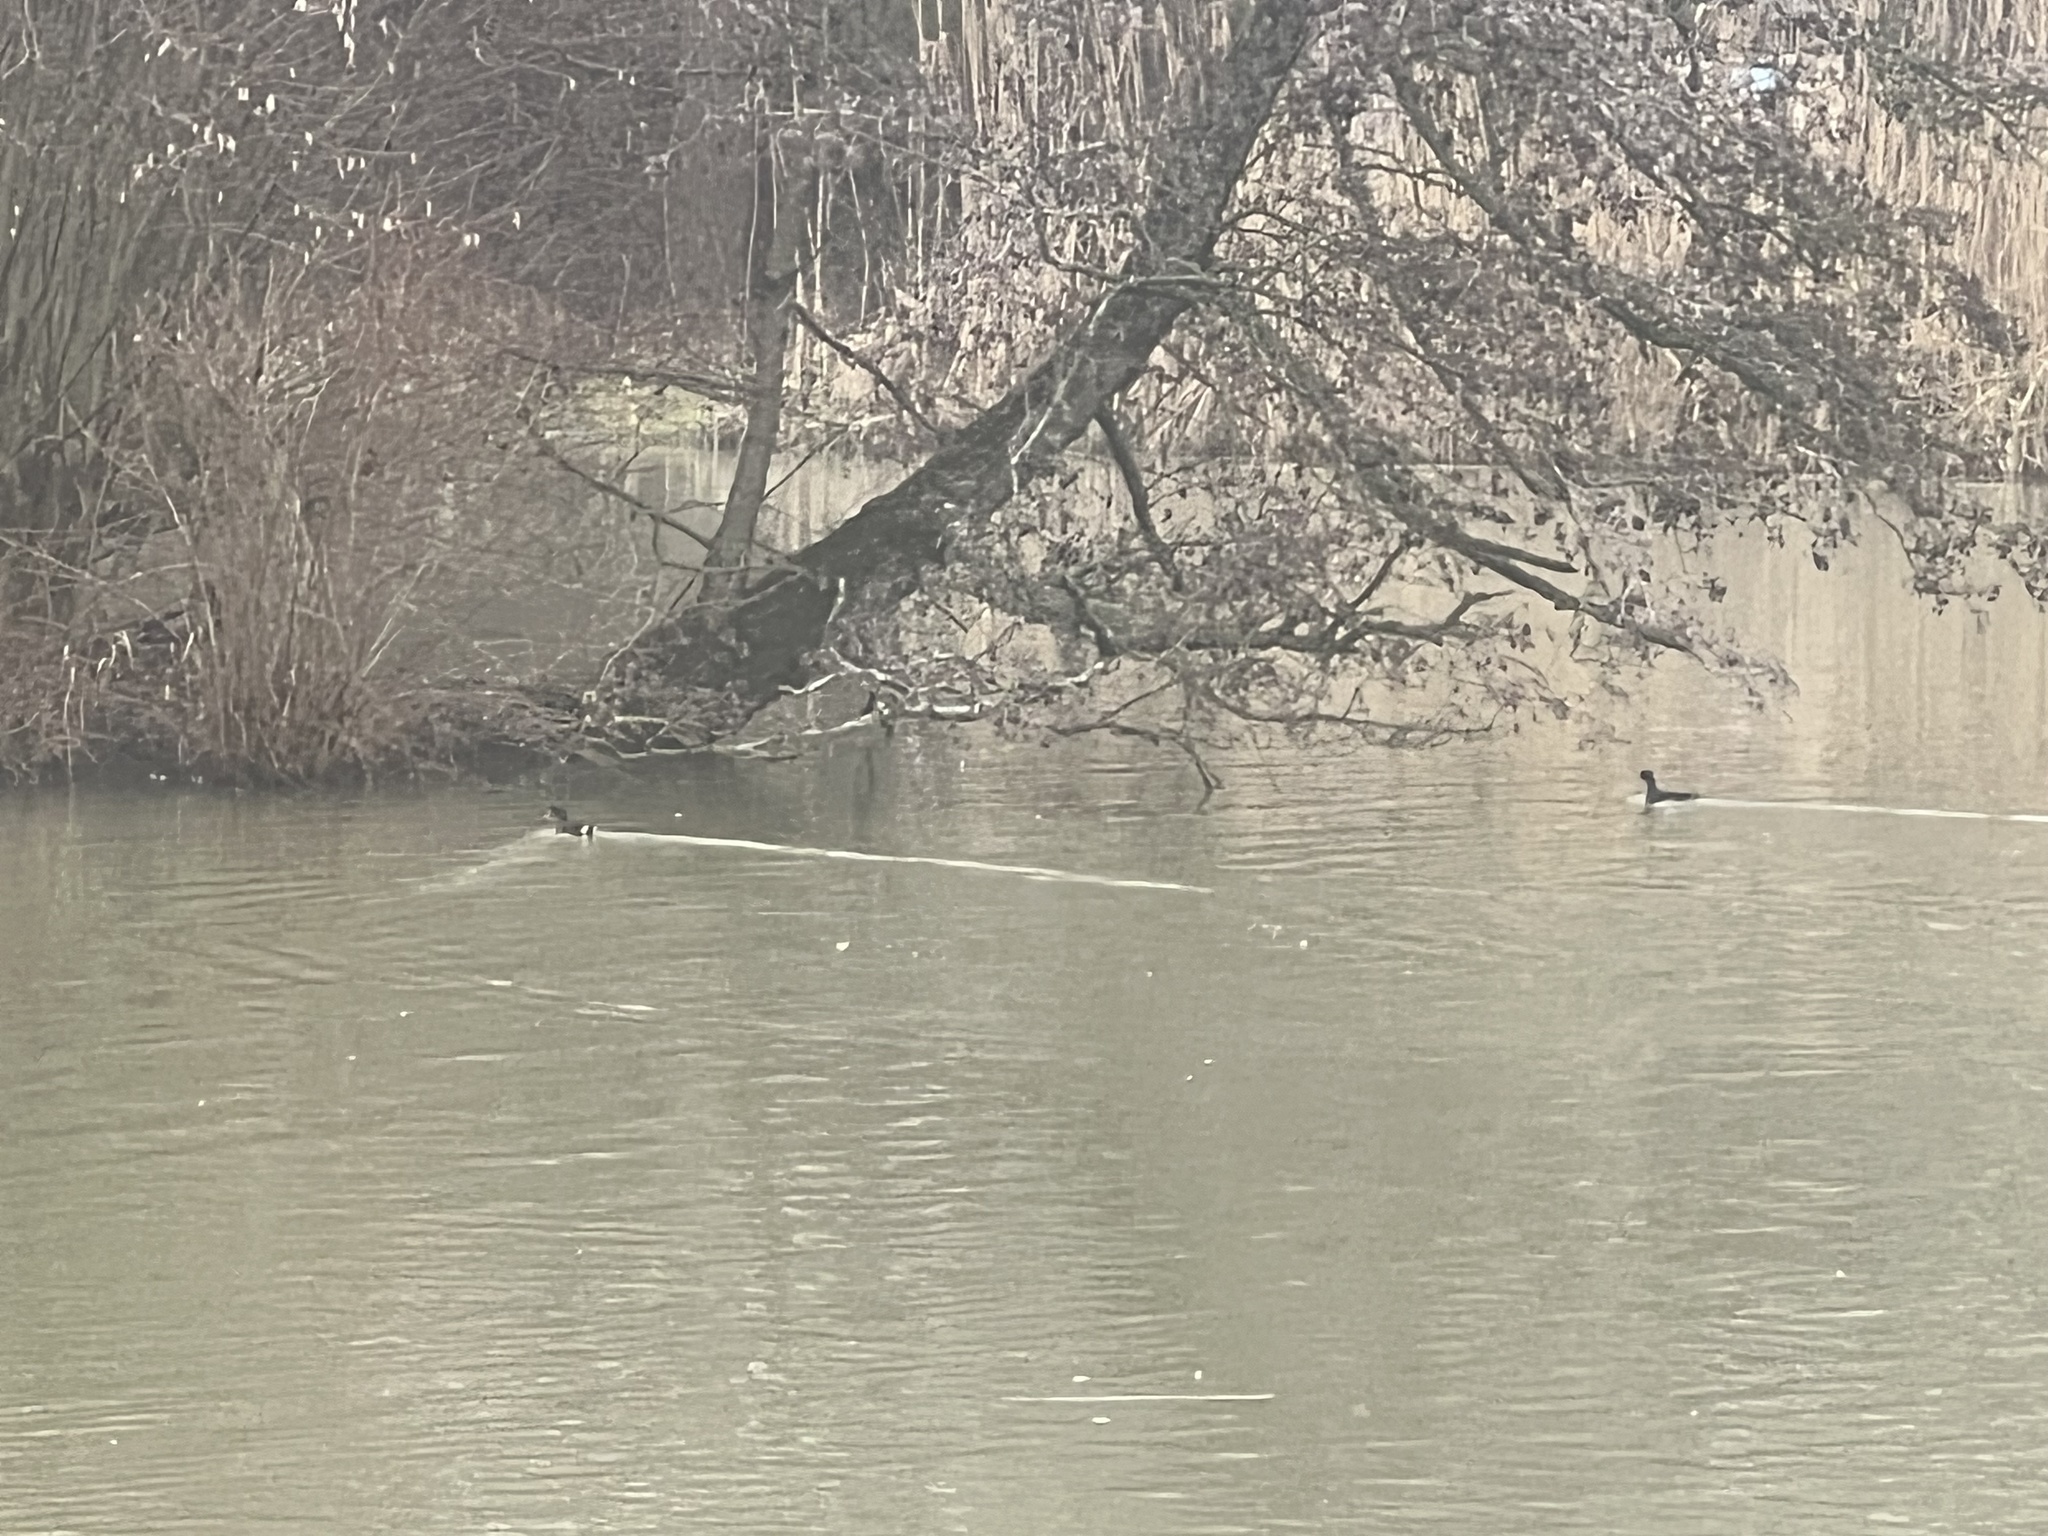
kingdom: Animalia
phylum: Chordata
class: Aves
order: Gruiformes
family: Rallidae
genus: Gallinula
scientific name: Gallinula chloropus
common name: Common moorhen
